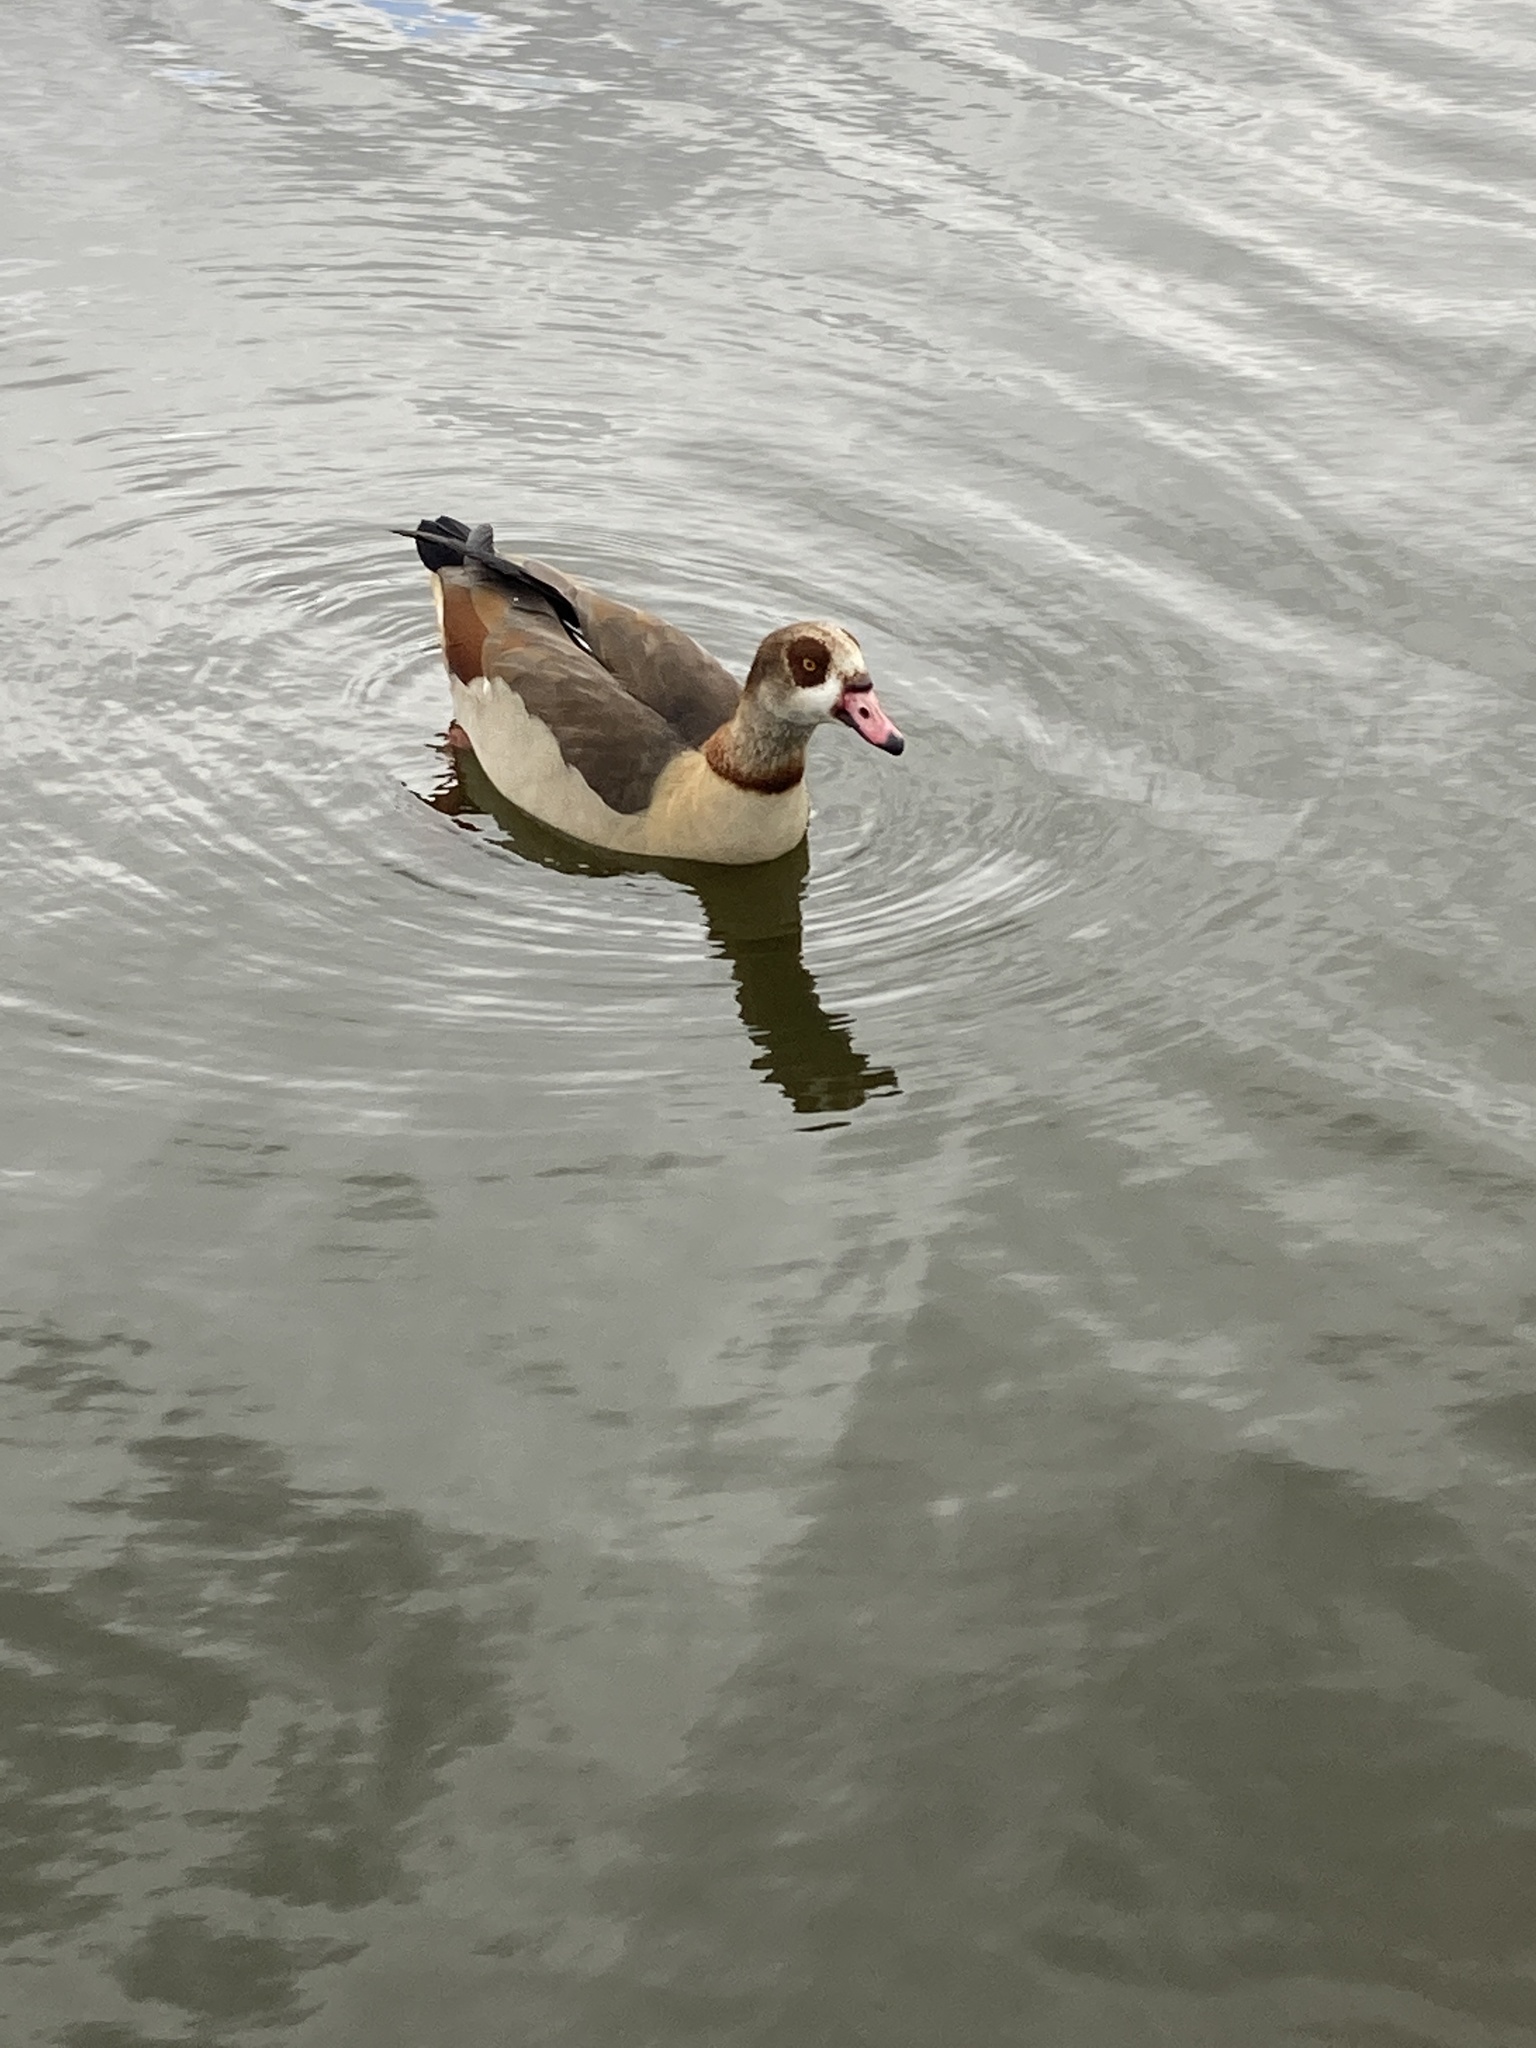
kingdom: Animalia
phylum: Chordata
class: Aves
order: Anseriformes
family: Anatidae
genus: Alopochen
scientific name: Alopochen aegyptiaca
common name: Egyptian goose
